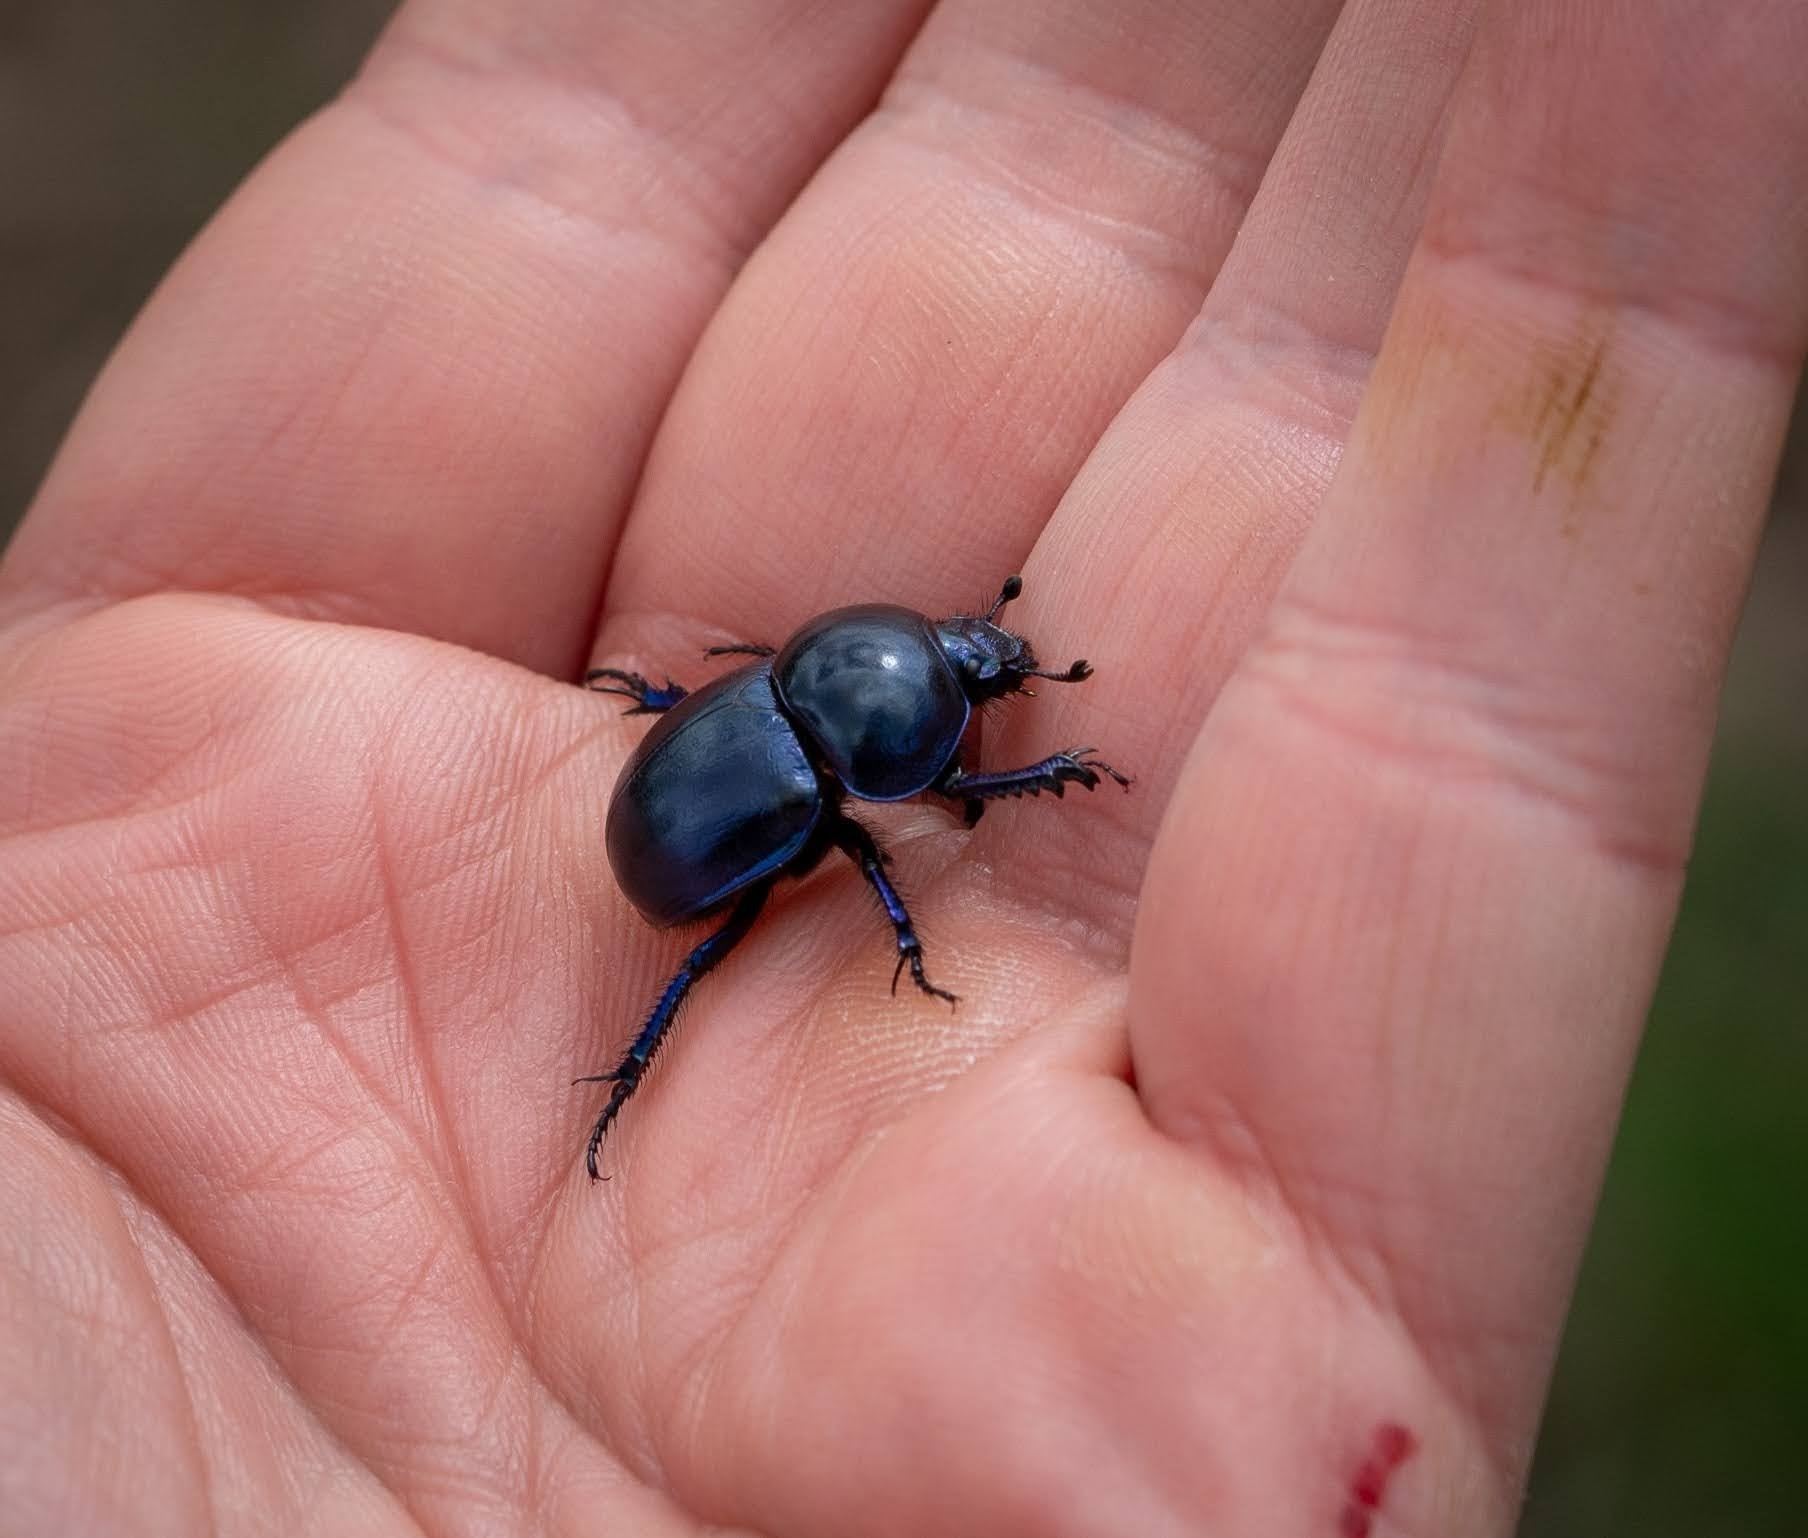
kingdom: Animalia
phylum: Arthropoda
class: Insecta
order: Coleoptera
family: Geotrupidae
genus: Trypocopris
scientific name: Trypocopris vernalis
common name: Spring dumbledor
